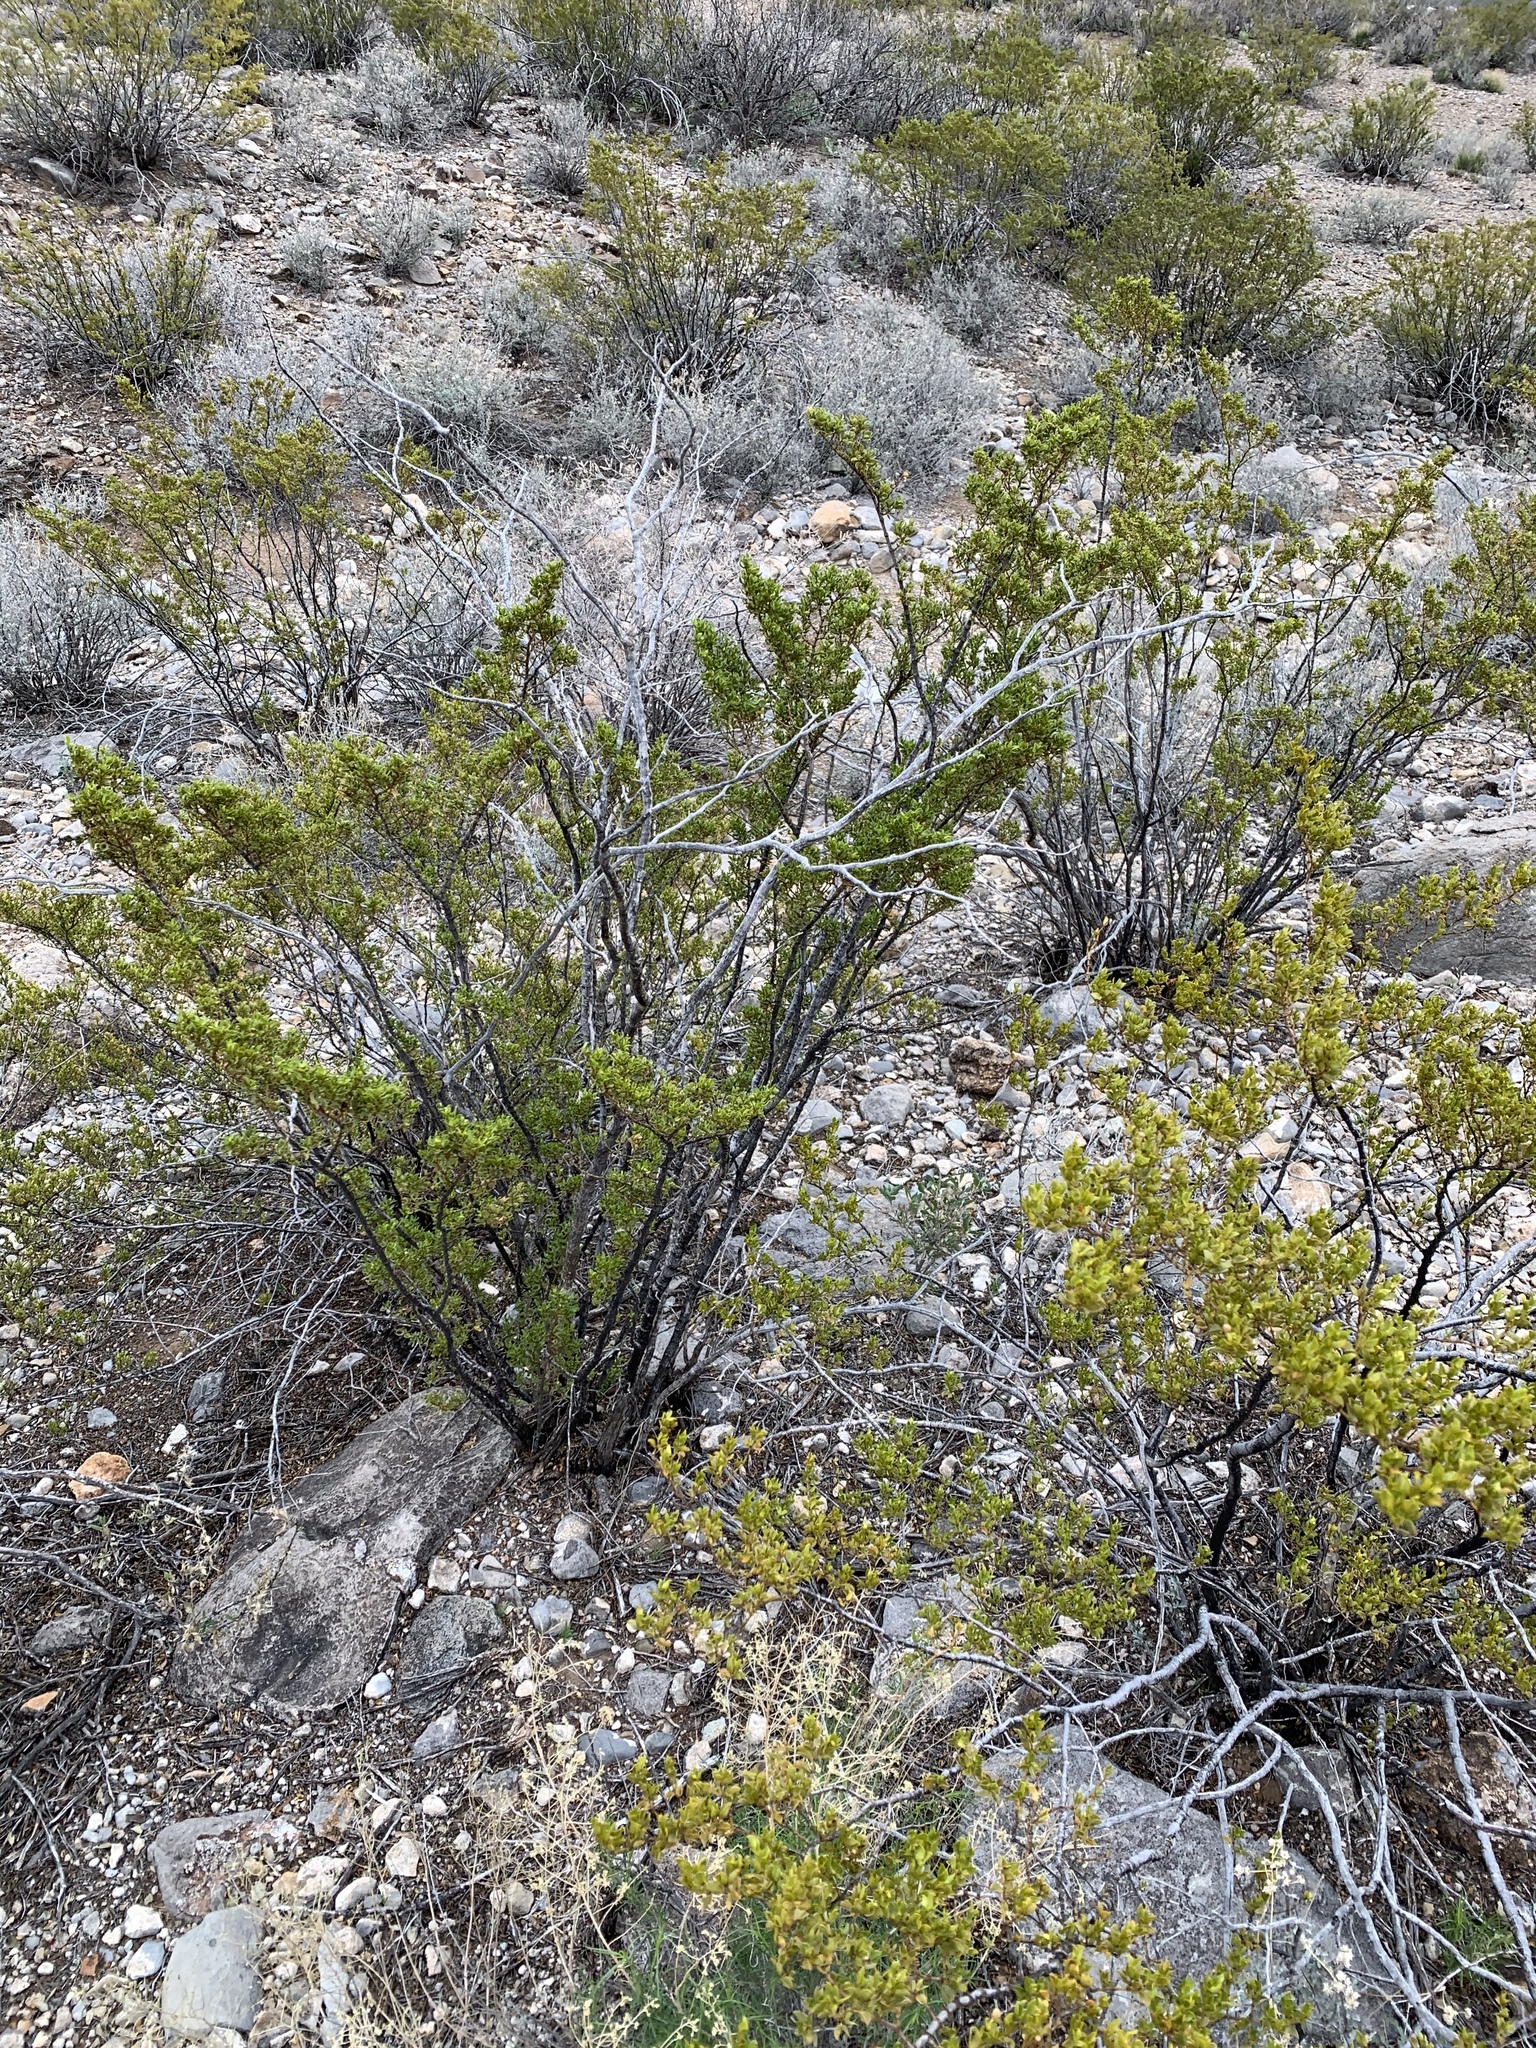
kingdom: Plantae
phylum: Tracheophyta
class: Magnoliopsida
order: Zygophyllales
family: Zygophyllaceae
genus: Larrea
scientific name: Larrea tridentata
